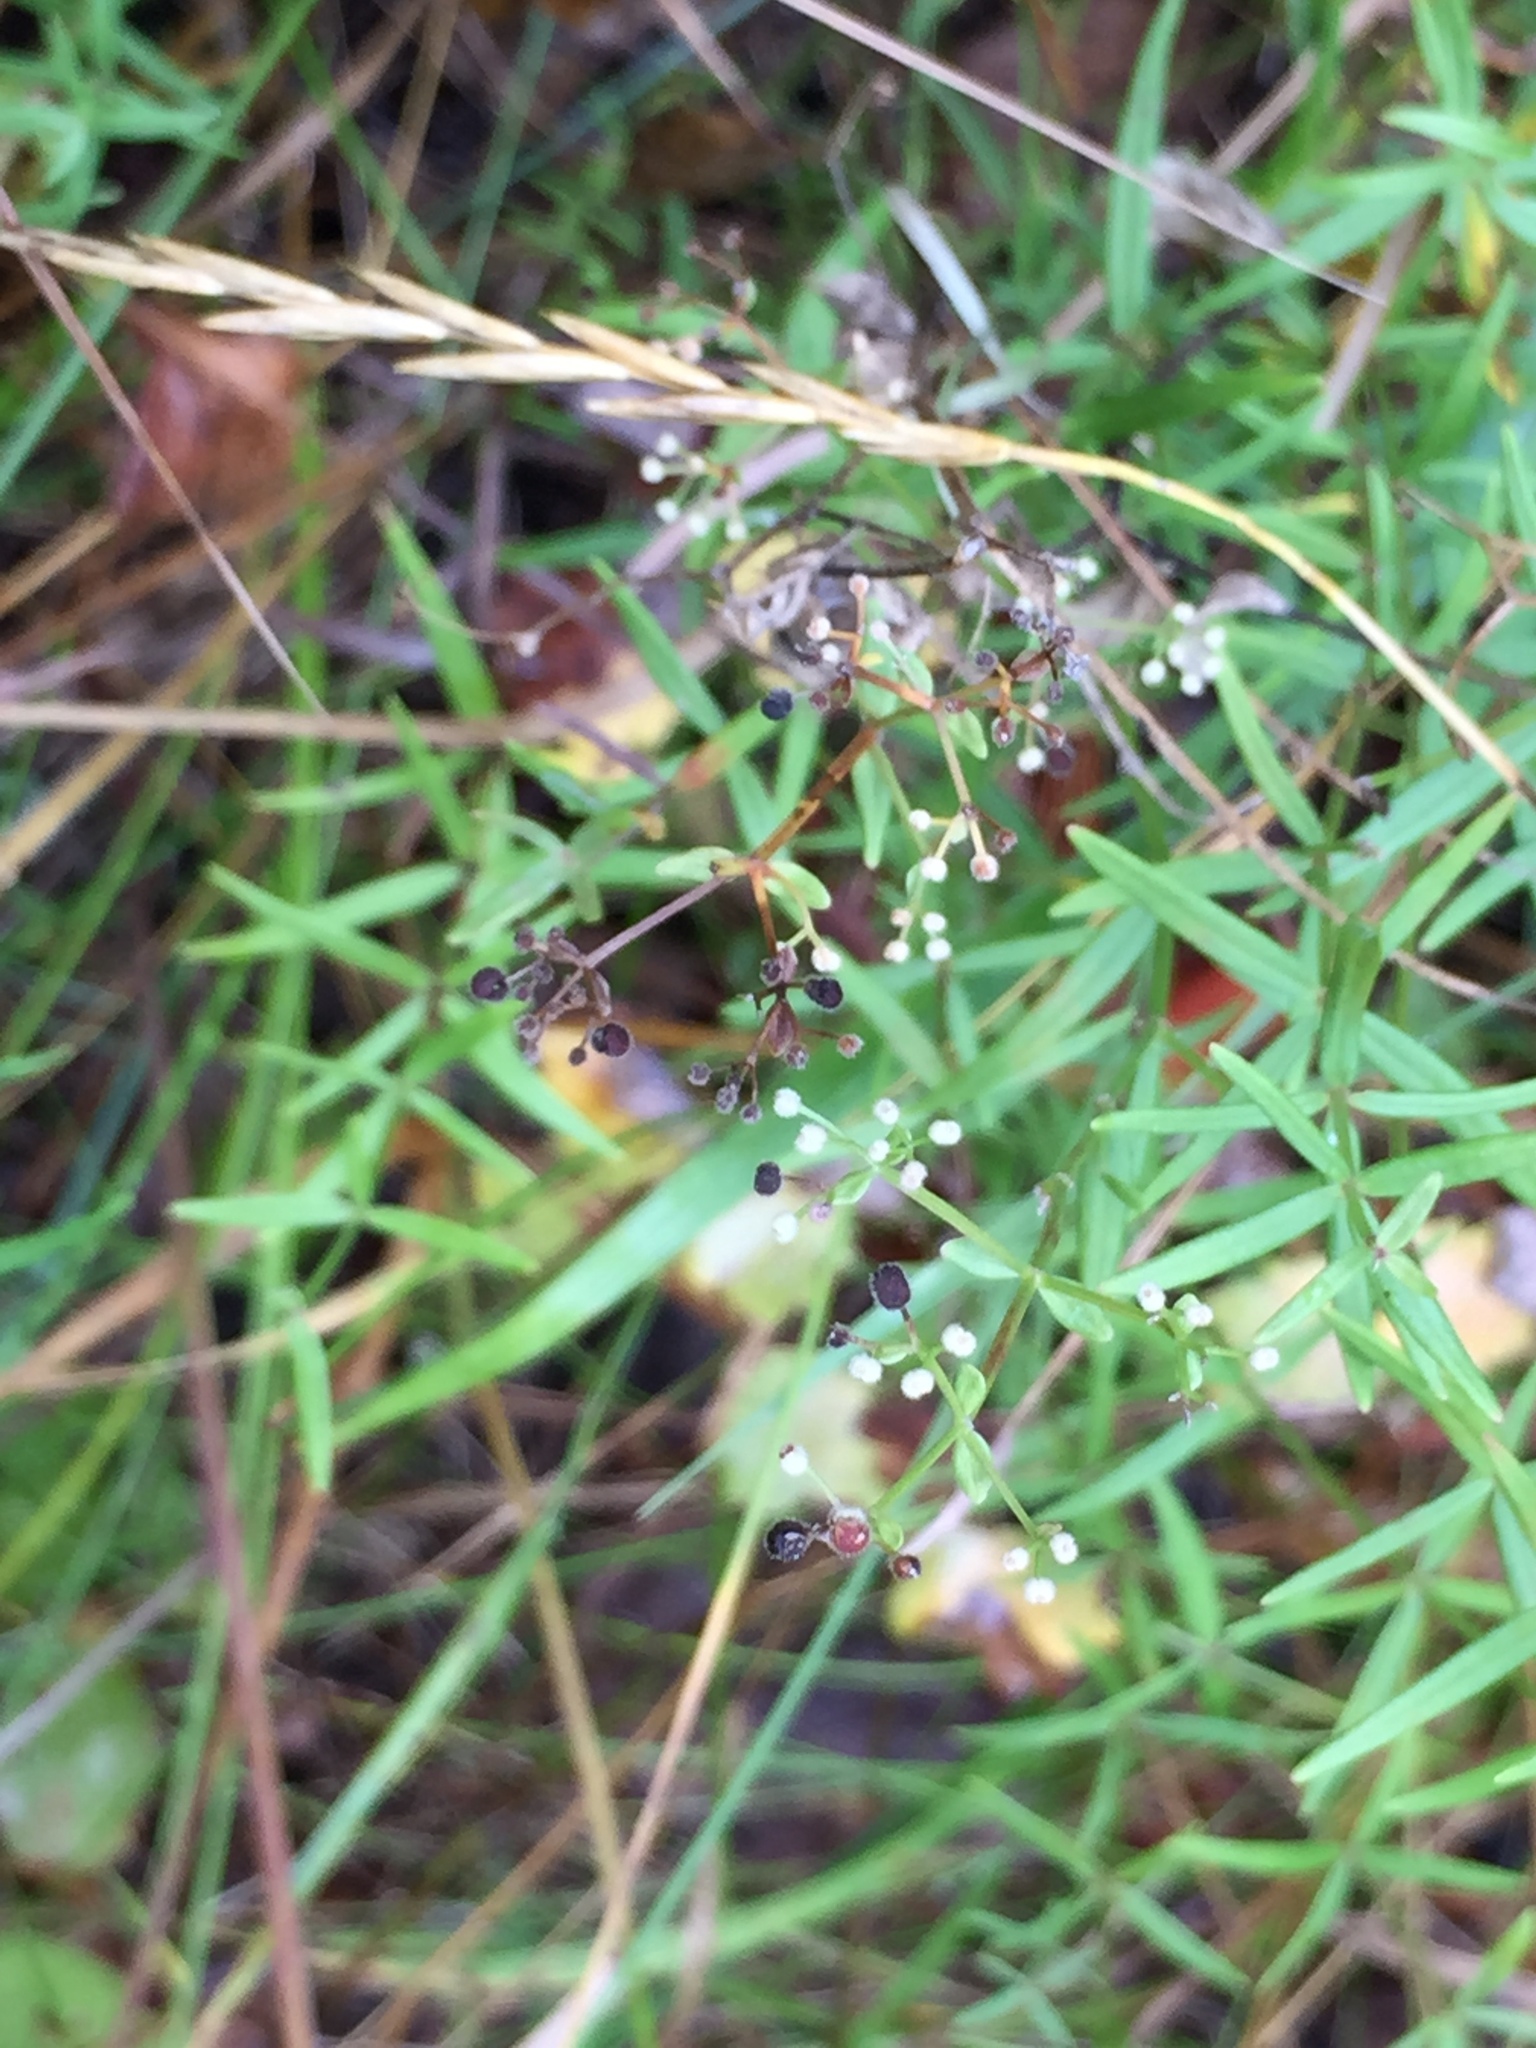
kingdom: Plantae
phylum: Tracheophyta
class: Magnoliopsida
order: Gentianales
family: Rubiaceae
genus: Galium
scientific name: Galium boreale
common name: Northern bedstraw
